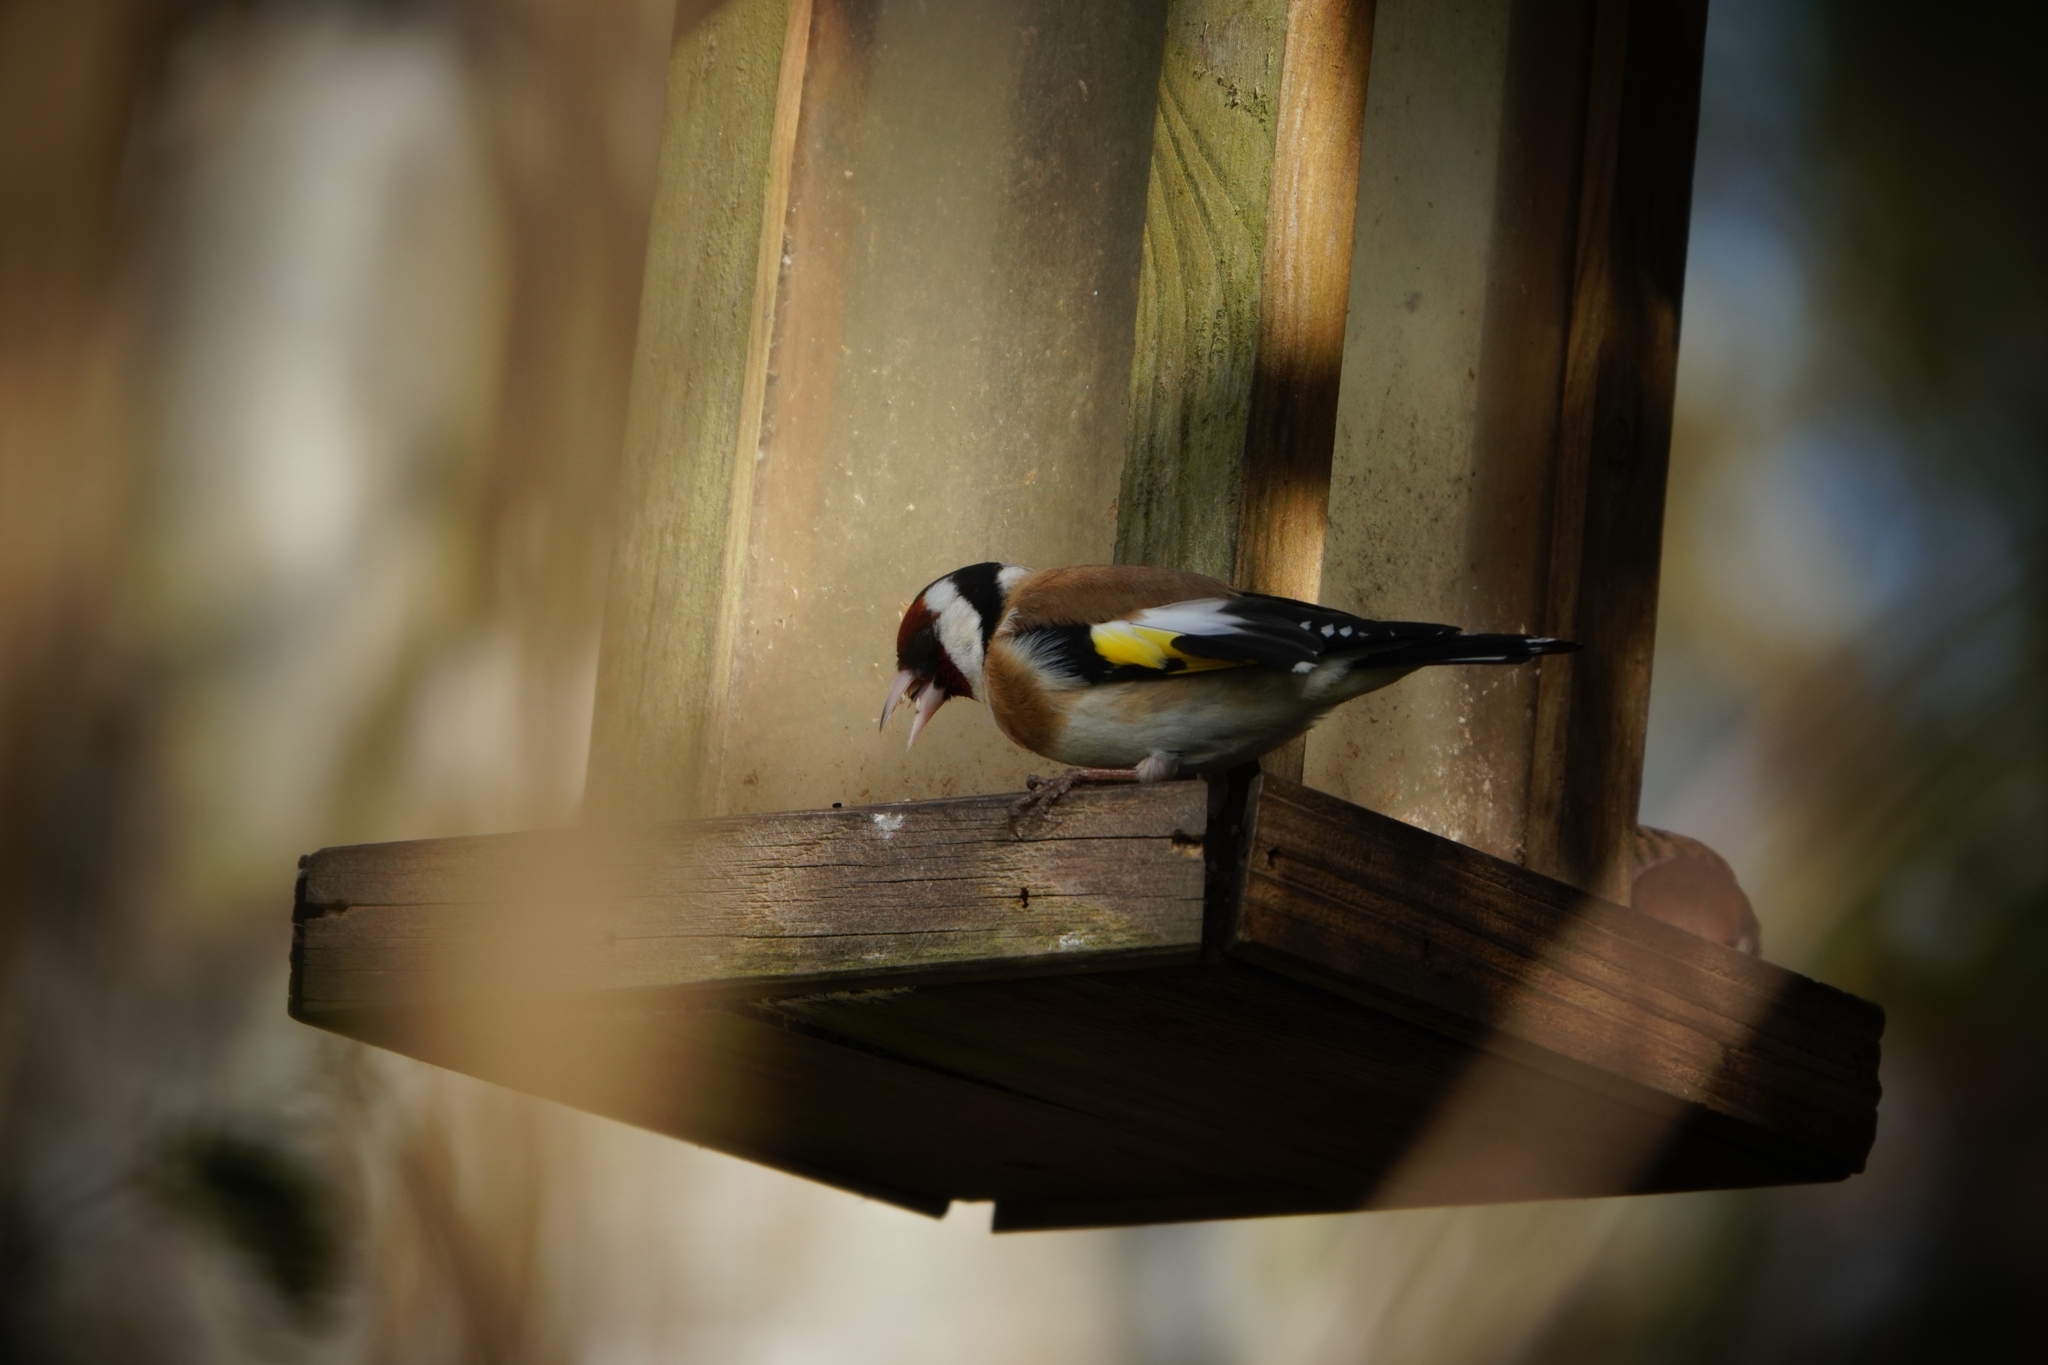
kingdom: Animalia
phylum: Chordata
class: Aves
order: Passeriformes
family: Fringillidae
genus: Carduelis
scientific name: Carduelis carduelis
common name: European goldfinch
